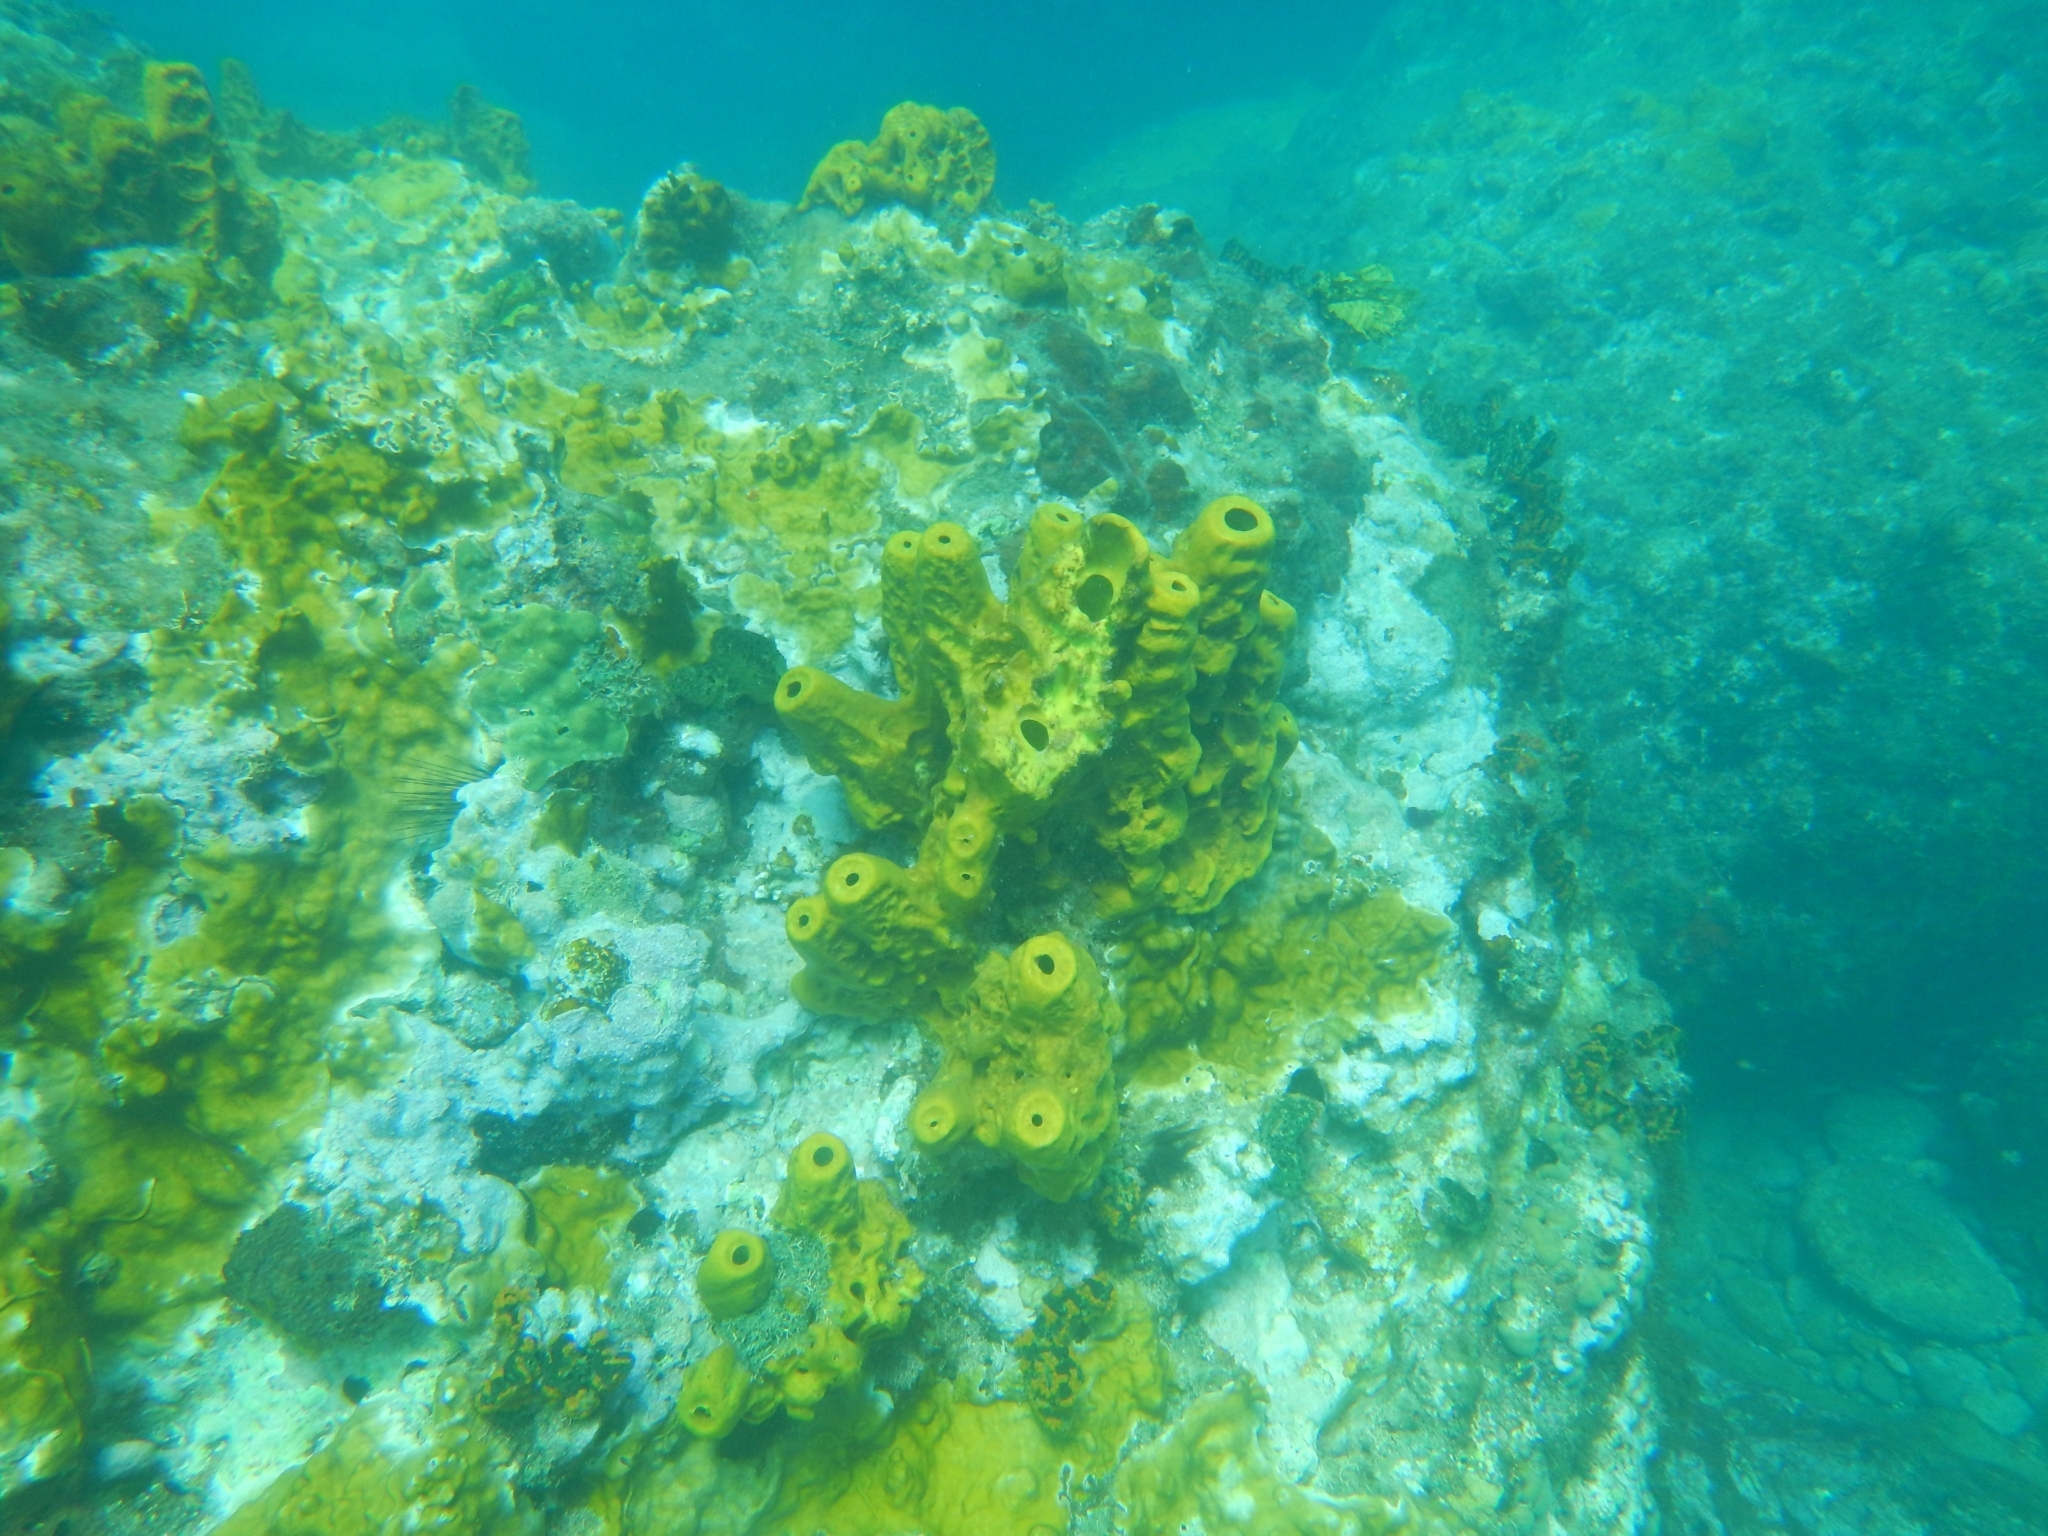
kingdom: Animalia
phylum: Porifera
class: Demospongiae
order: Verongiida
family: Aplysinidae
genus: Aplysina
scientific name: Aplysina fistularis
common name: Candle sponge
